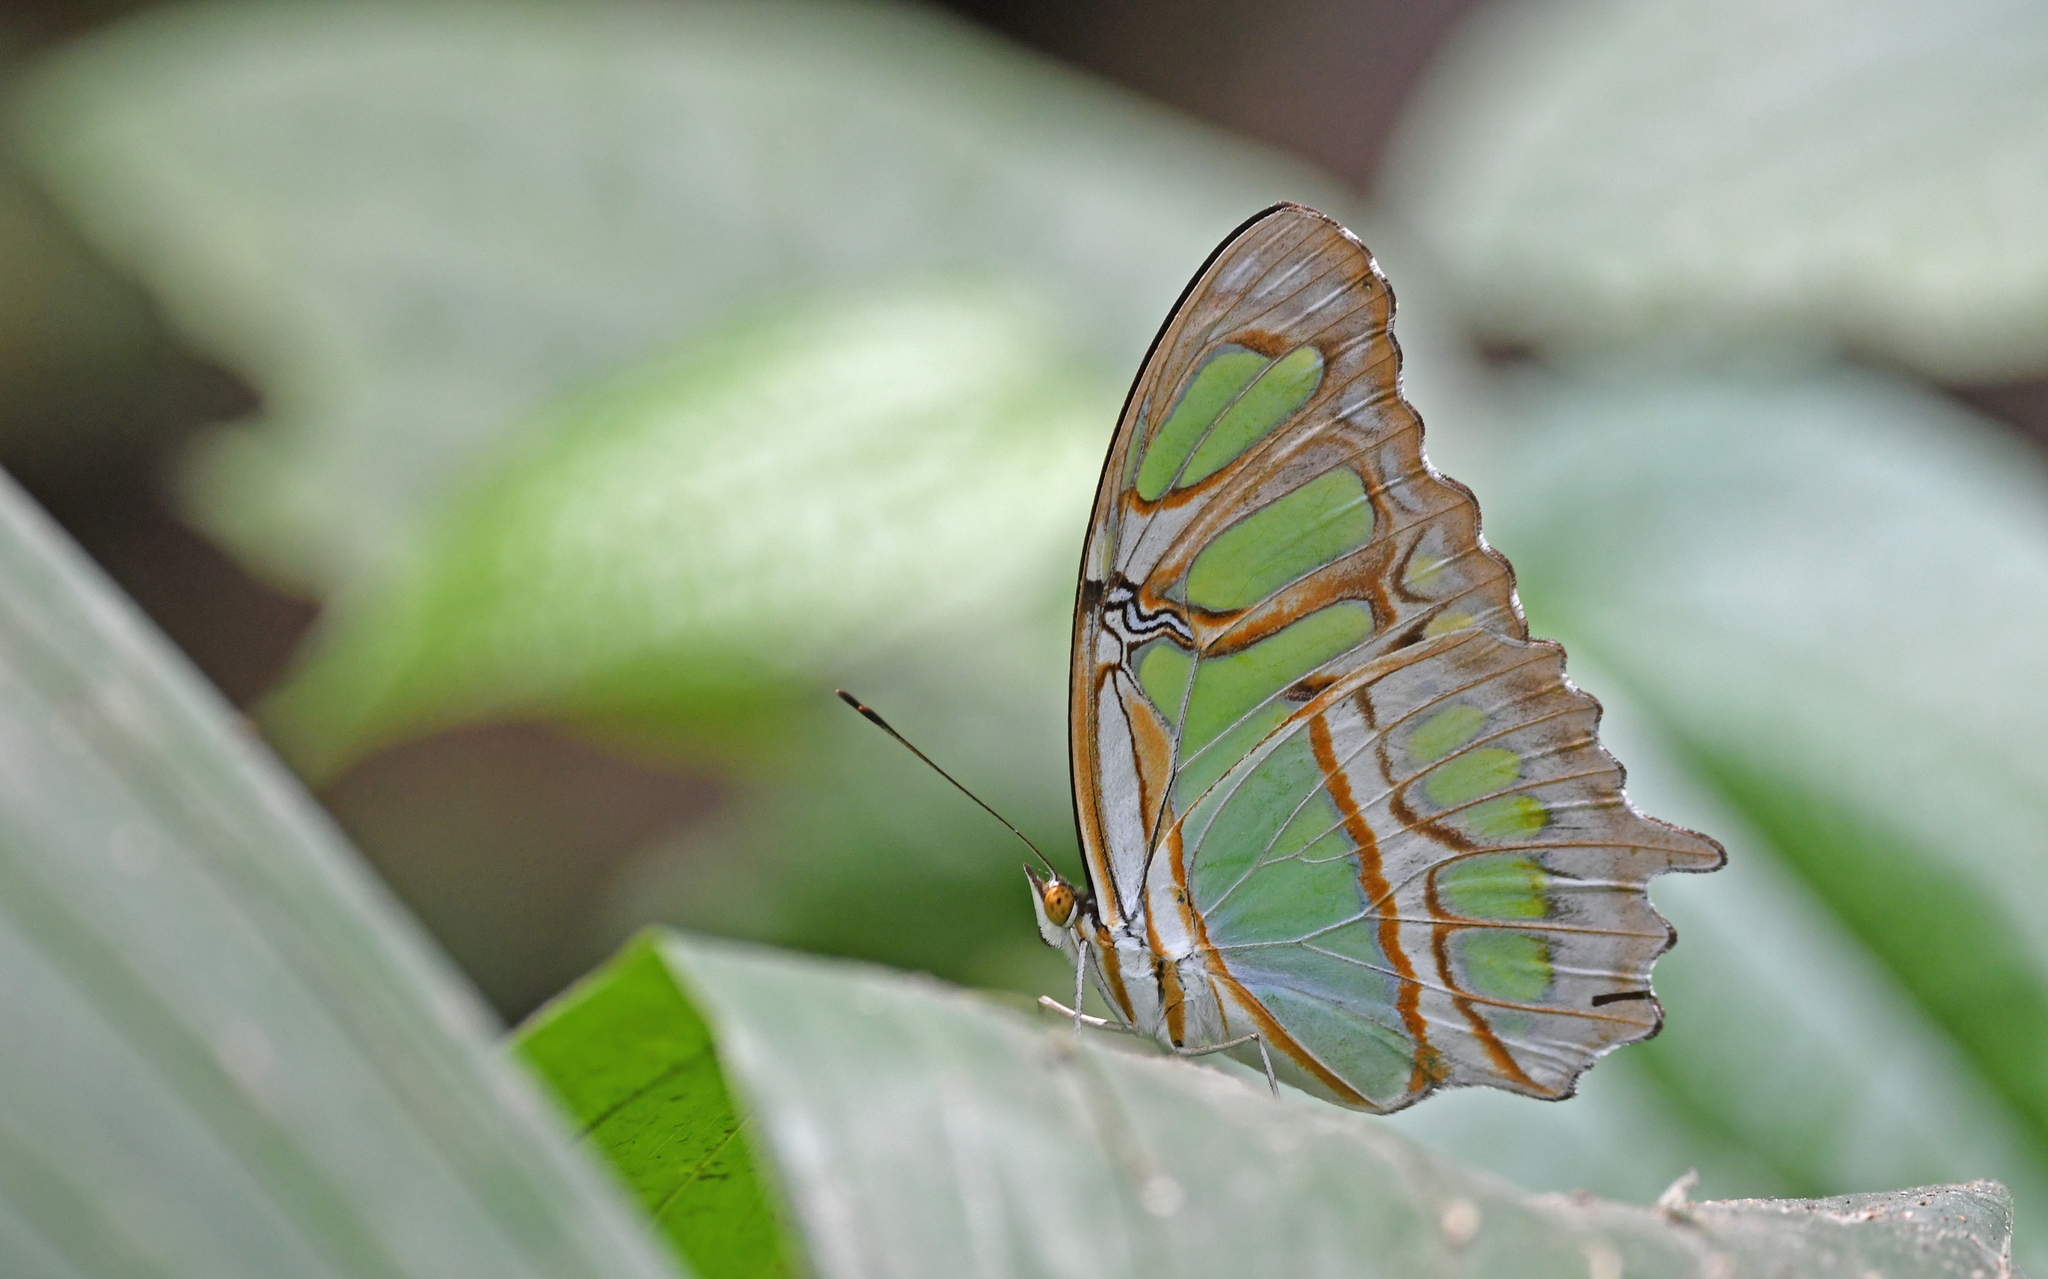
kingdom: Animalia
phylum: Arthropoda
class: Insecta
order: Lepidoptera
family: Nymphalidae
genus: Siproeta
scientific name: Siproeta stelenes
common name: Malachite
